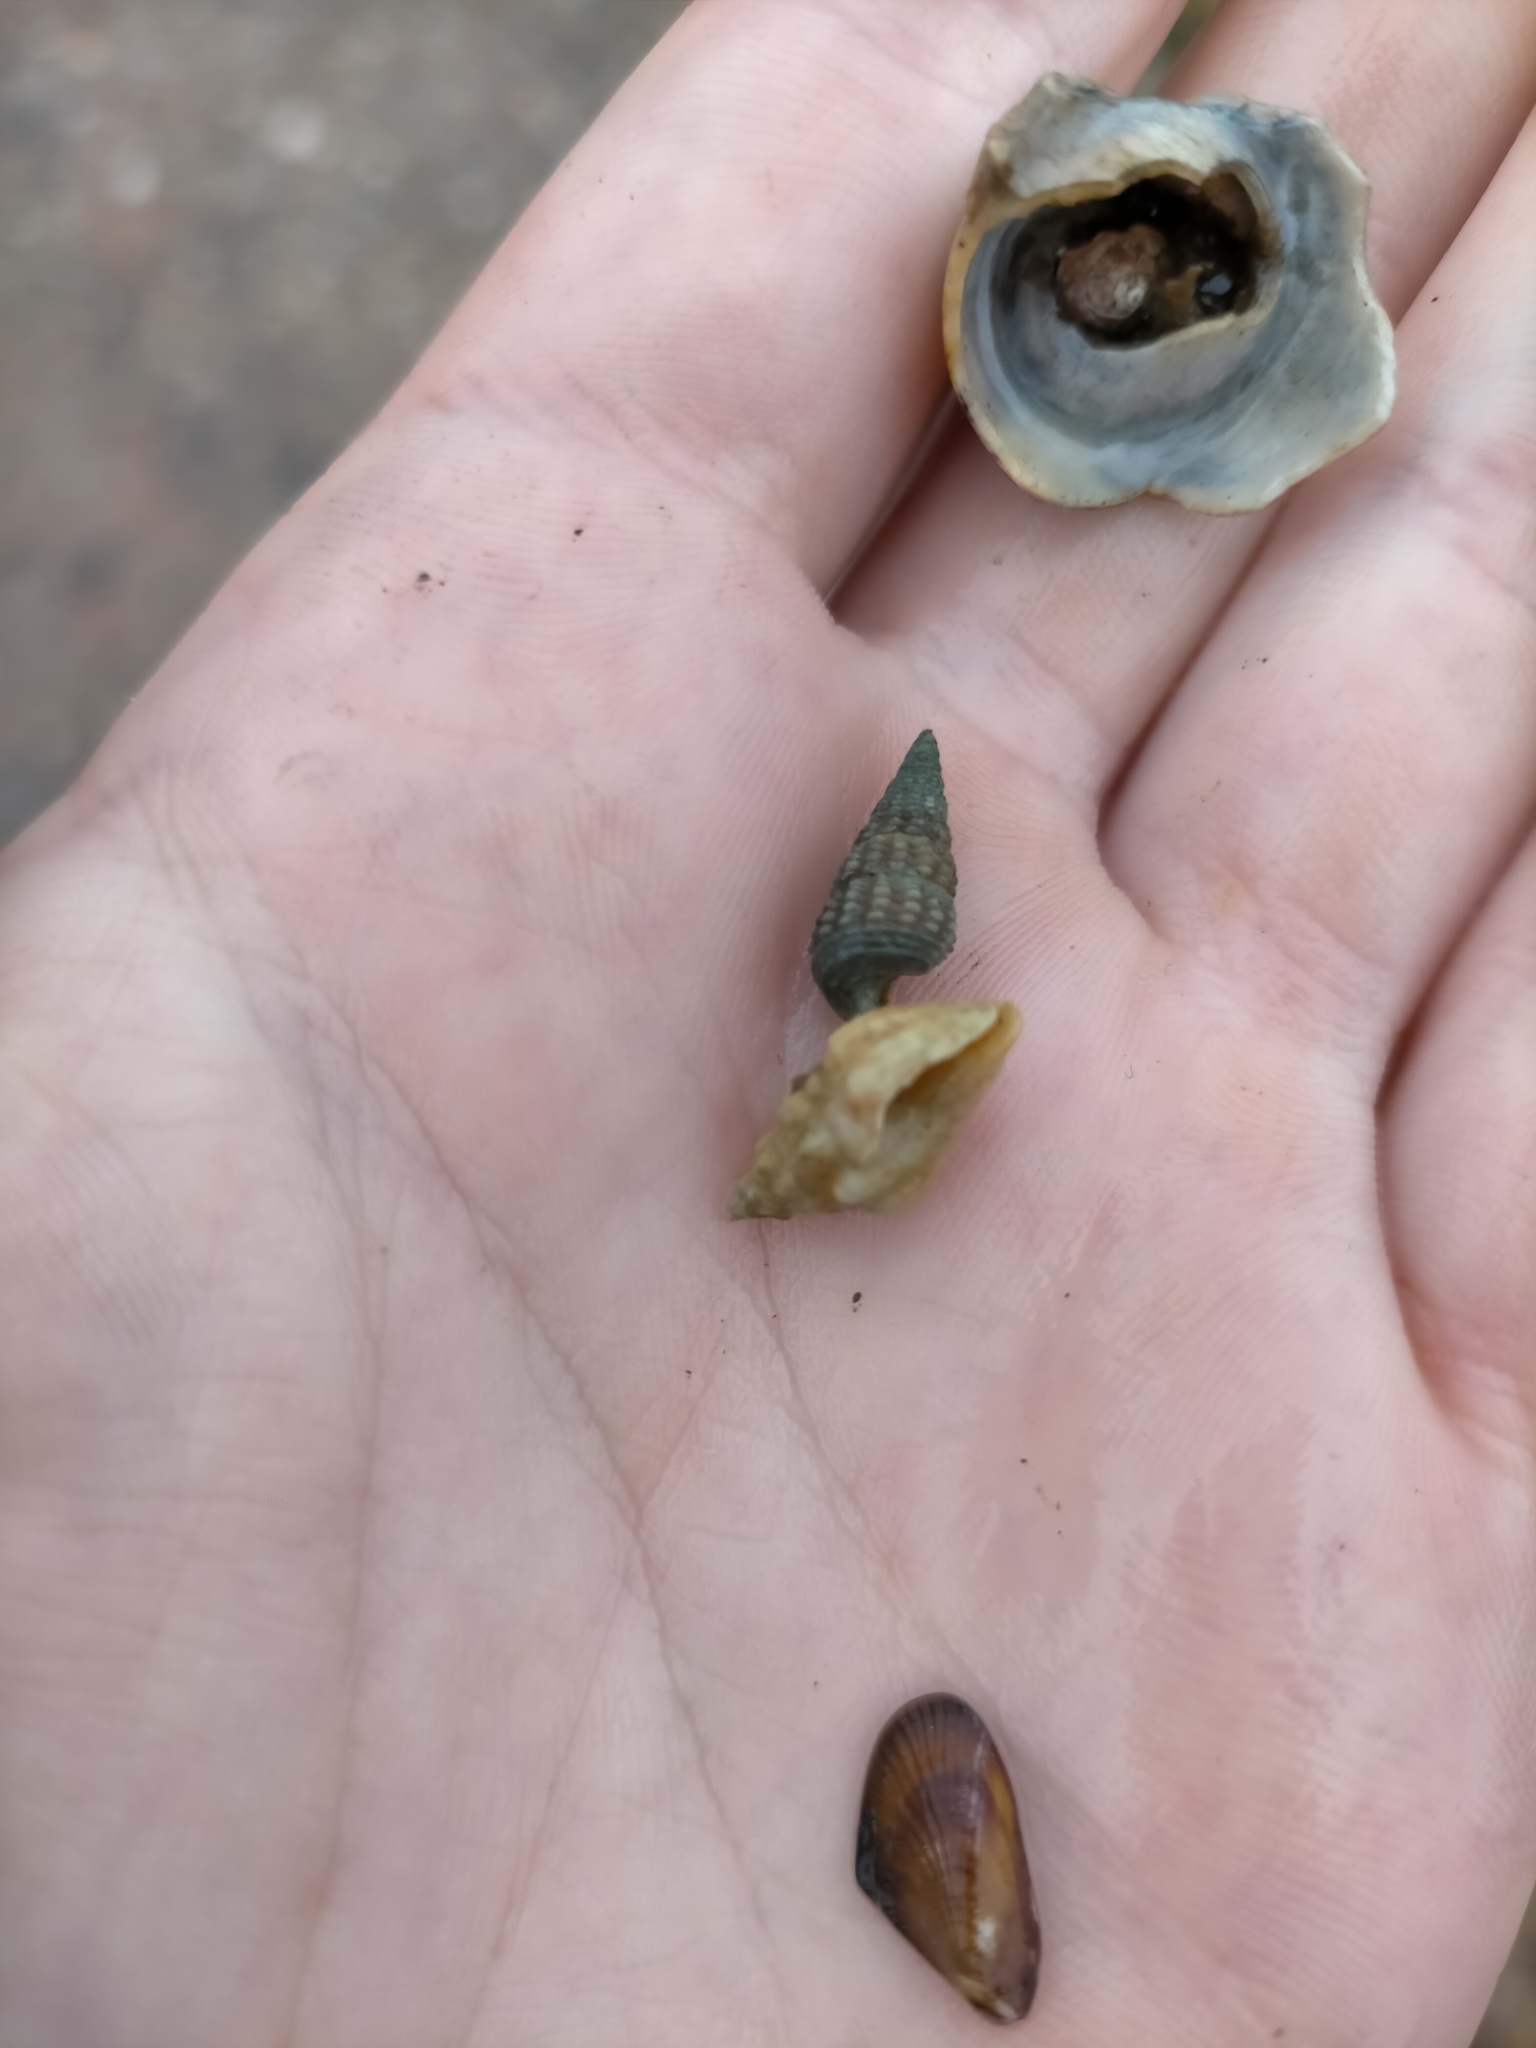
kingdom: Animalia
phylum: Mollusca
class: Gastropoda
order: Neogastropoda
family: Cominellidae
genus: Cominella
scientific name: Cominella eburnea
